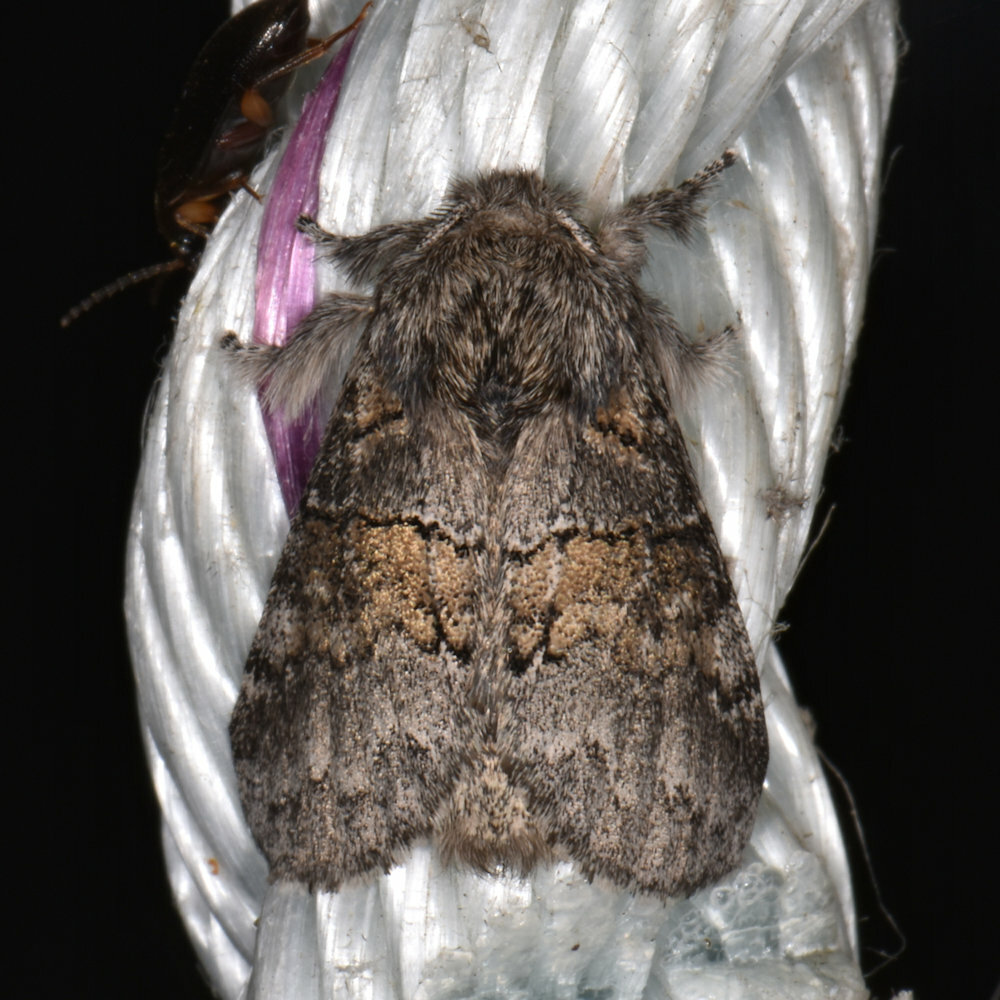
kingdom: Animalia
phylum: Arthropoda
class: Insecta
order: Lepidoptera
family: Notodontidae
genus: Gluphisia
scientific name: Gluphisia septentrionis
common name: Common gluphisia
